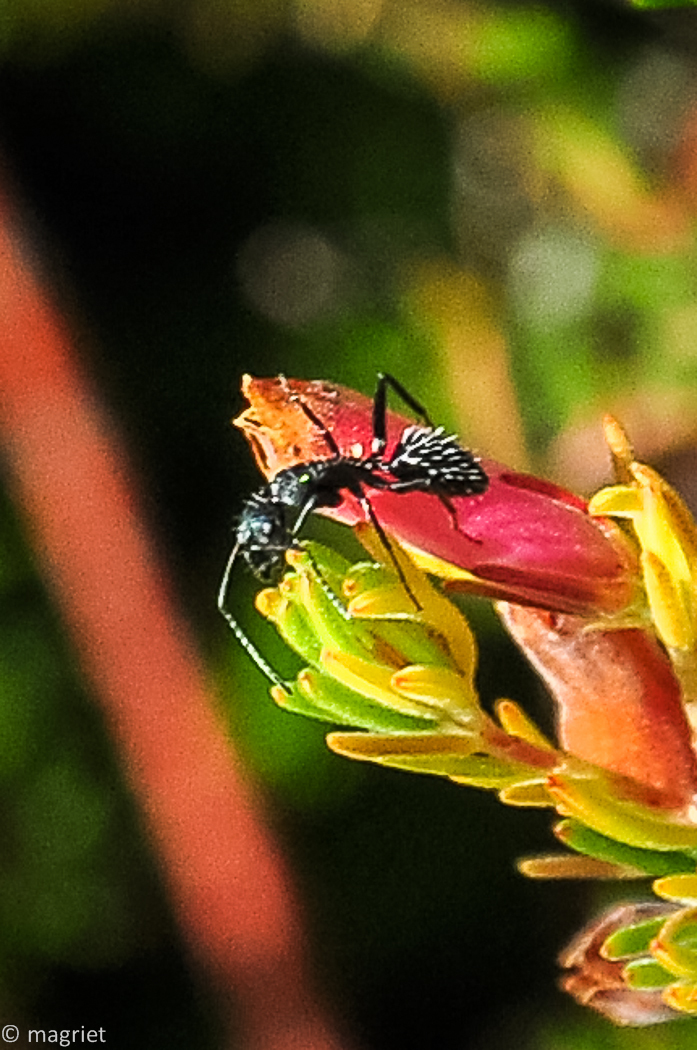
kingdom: Animalia
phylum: Arthropoda
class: Insecta
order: Hymenoptera
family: Formicidae
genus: Camponotus
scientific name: Camponotus niveosetosus
